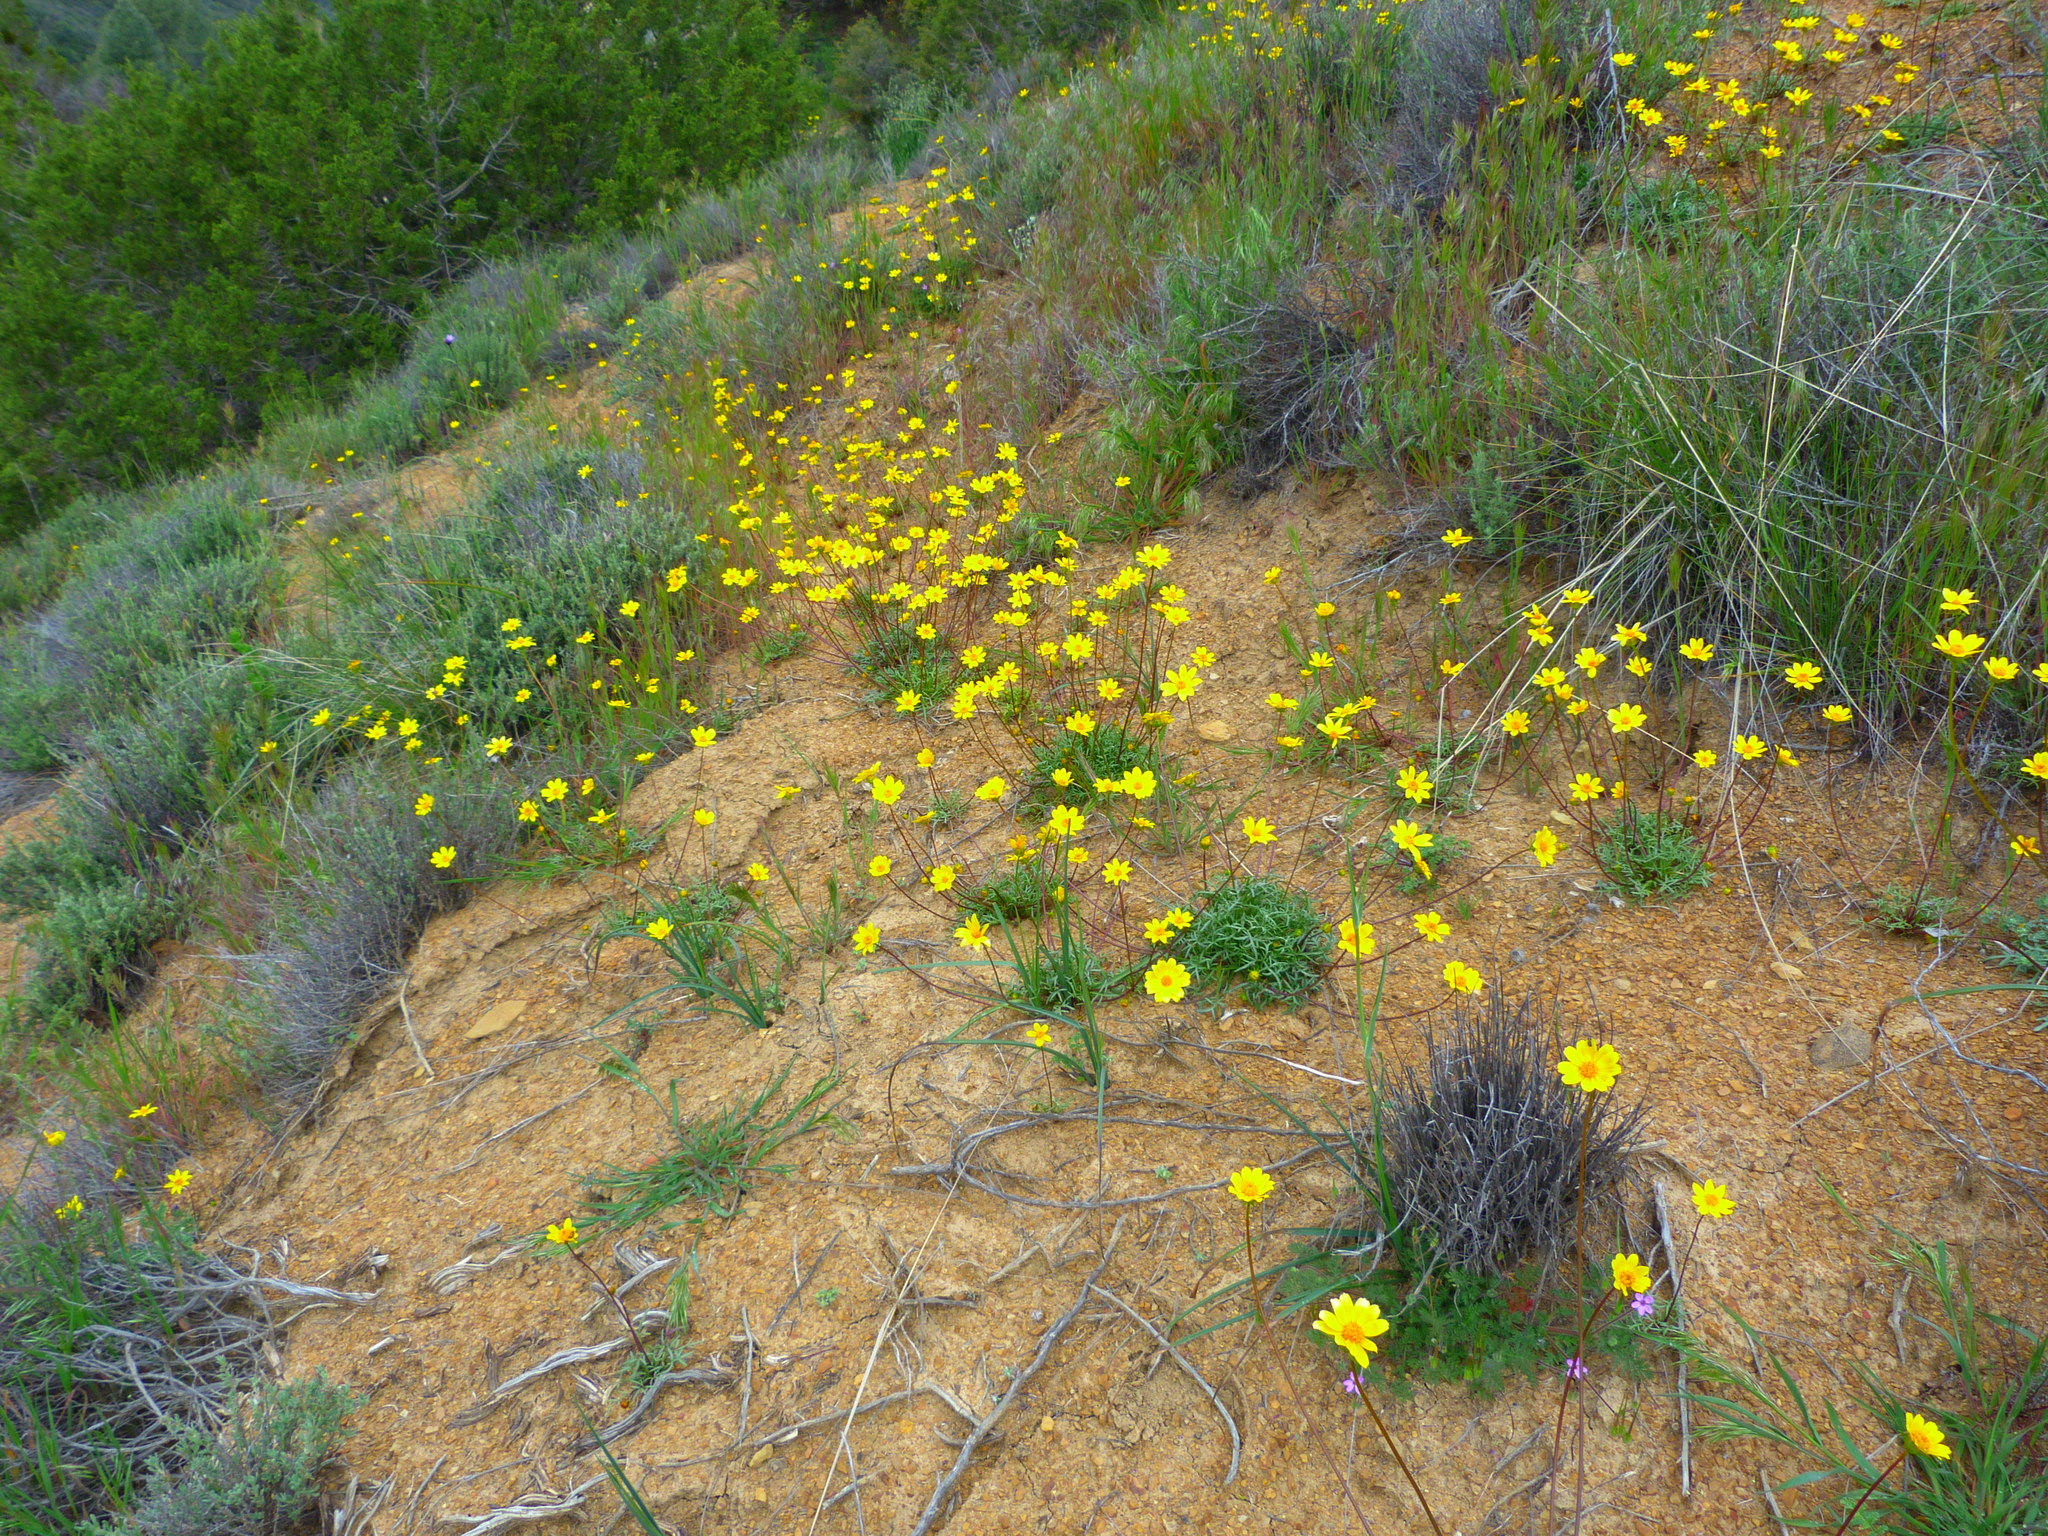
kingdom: Plantae
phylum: Tracheophyta
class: Magnoliopsida
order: Asterales
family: Asteraceae
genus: Coreopsis
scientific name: Coreopsis bigelovii
